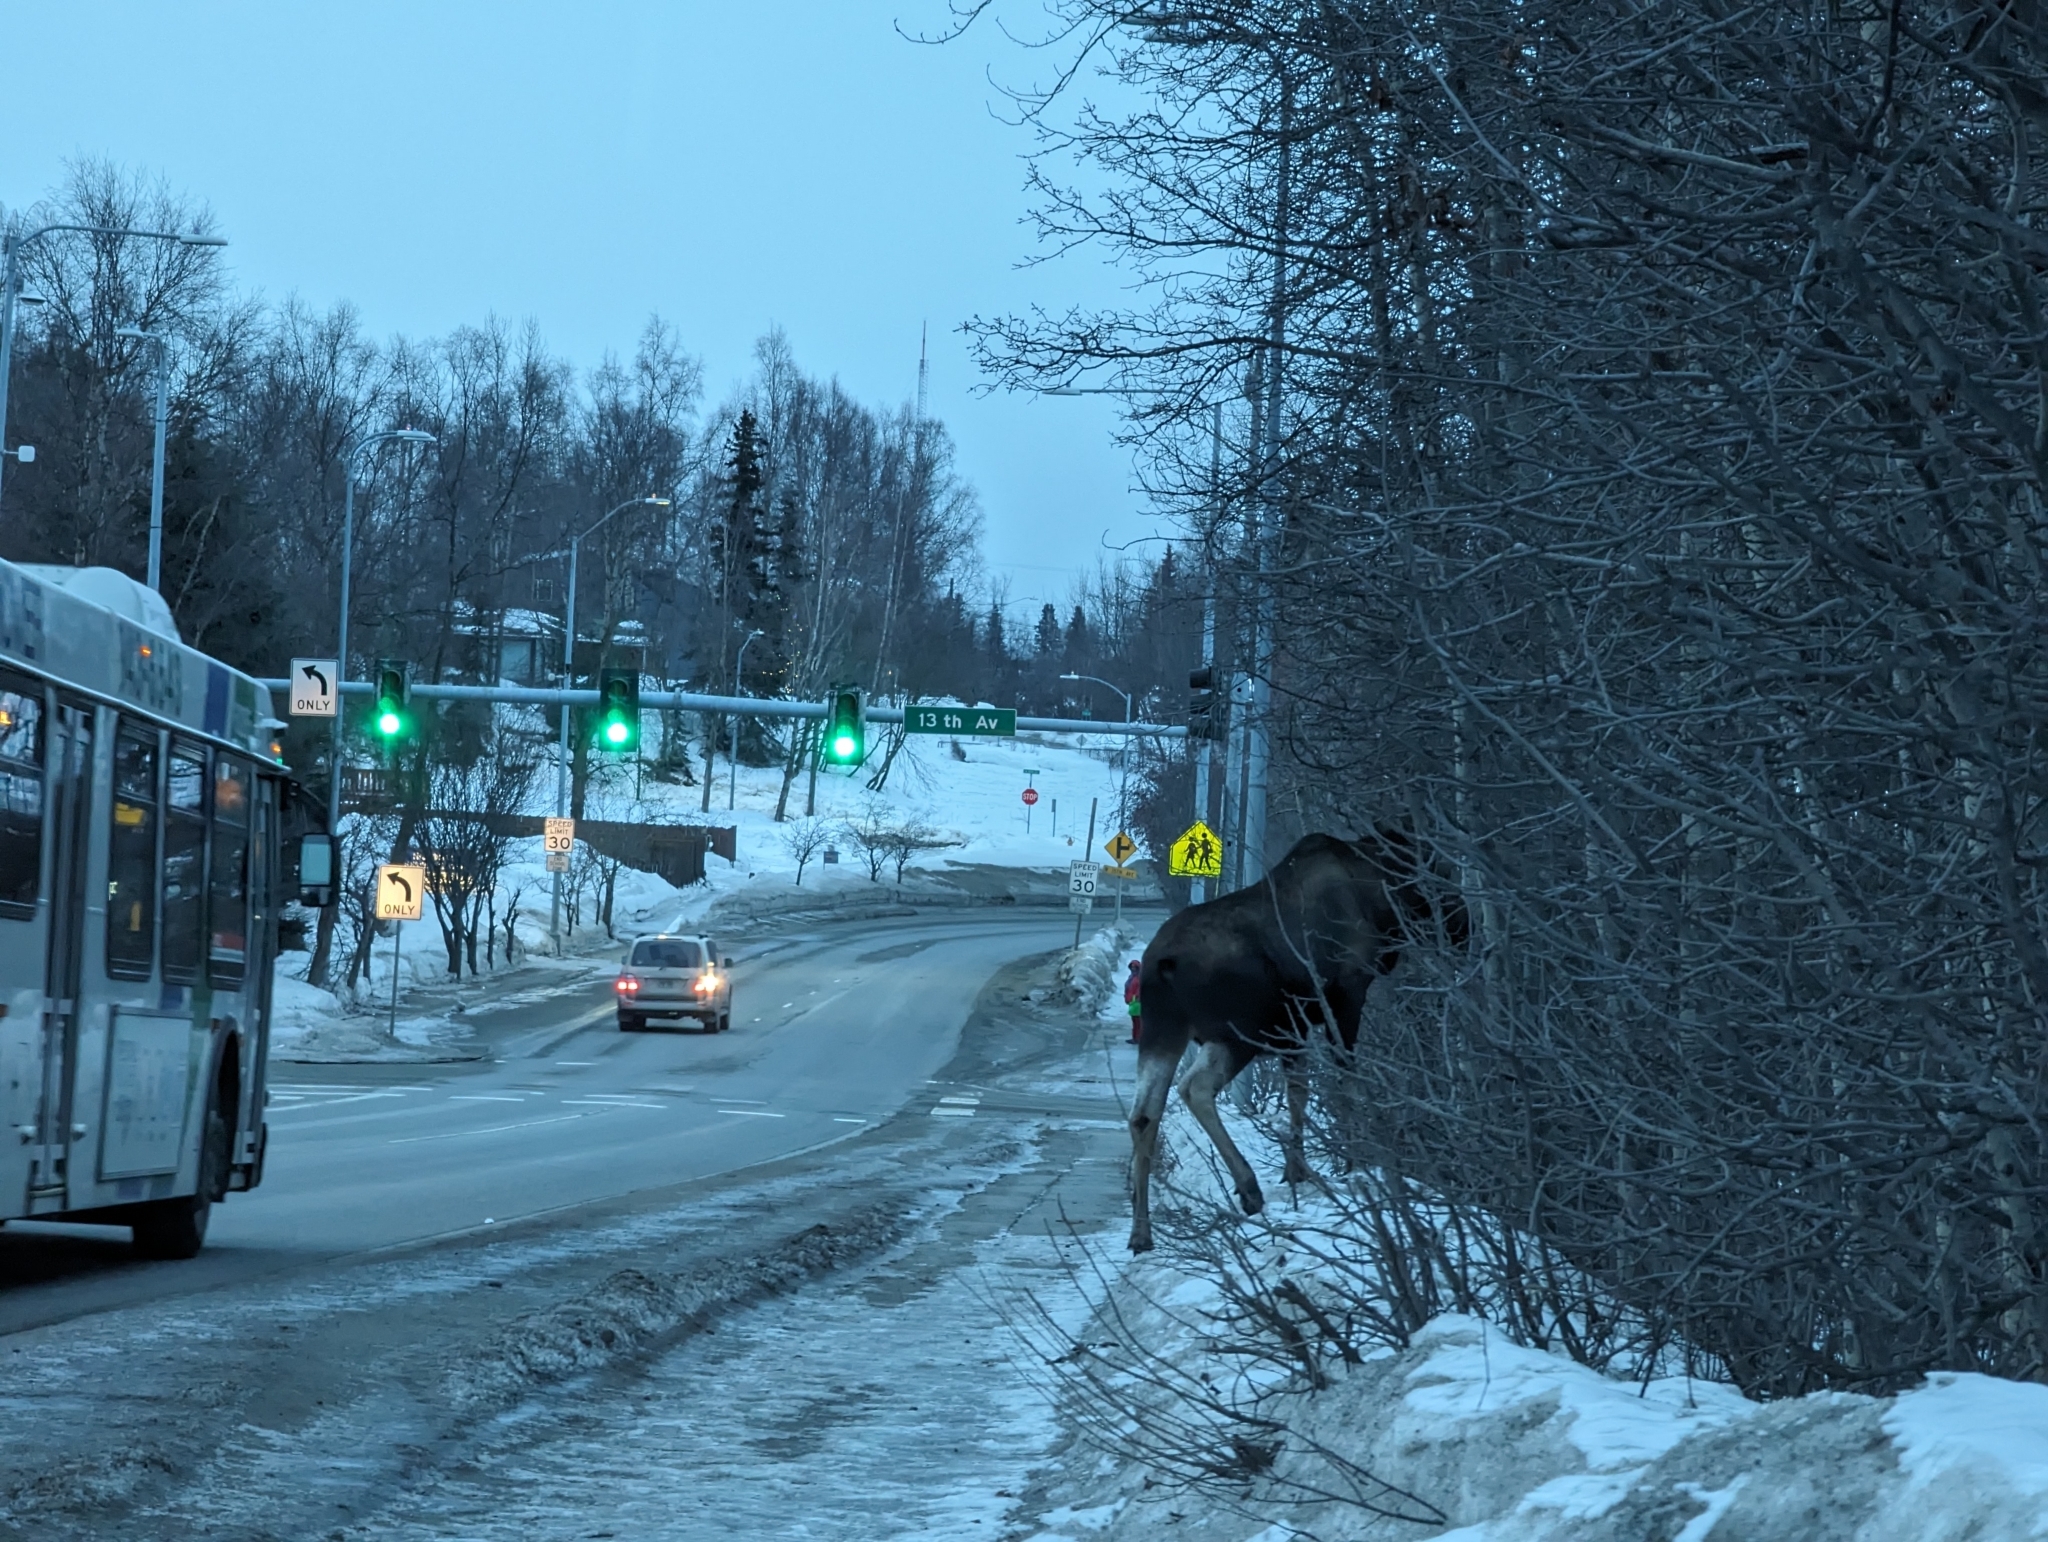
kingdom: Animalia
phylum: Chordata
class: Mammalia
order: Artiodactyla
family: Cervidae
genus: Alces
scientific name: Alces alces
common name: Moose
